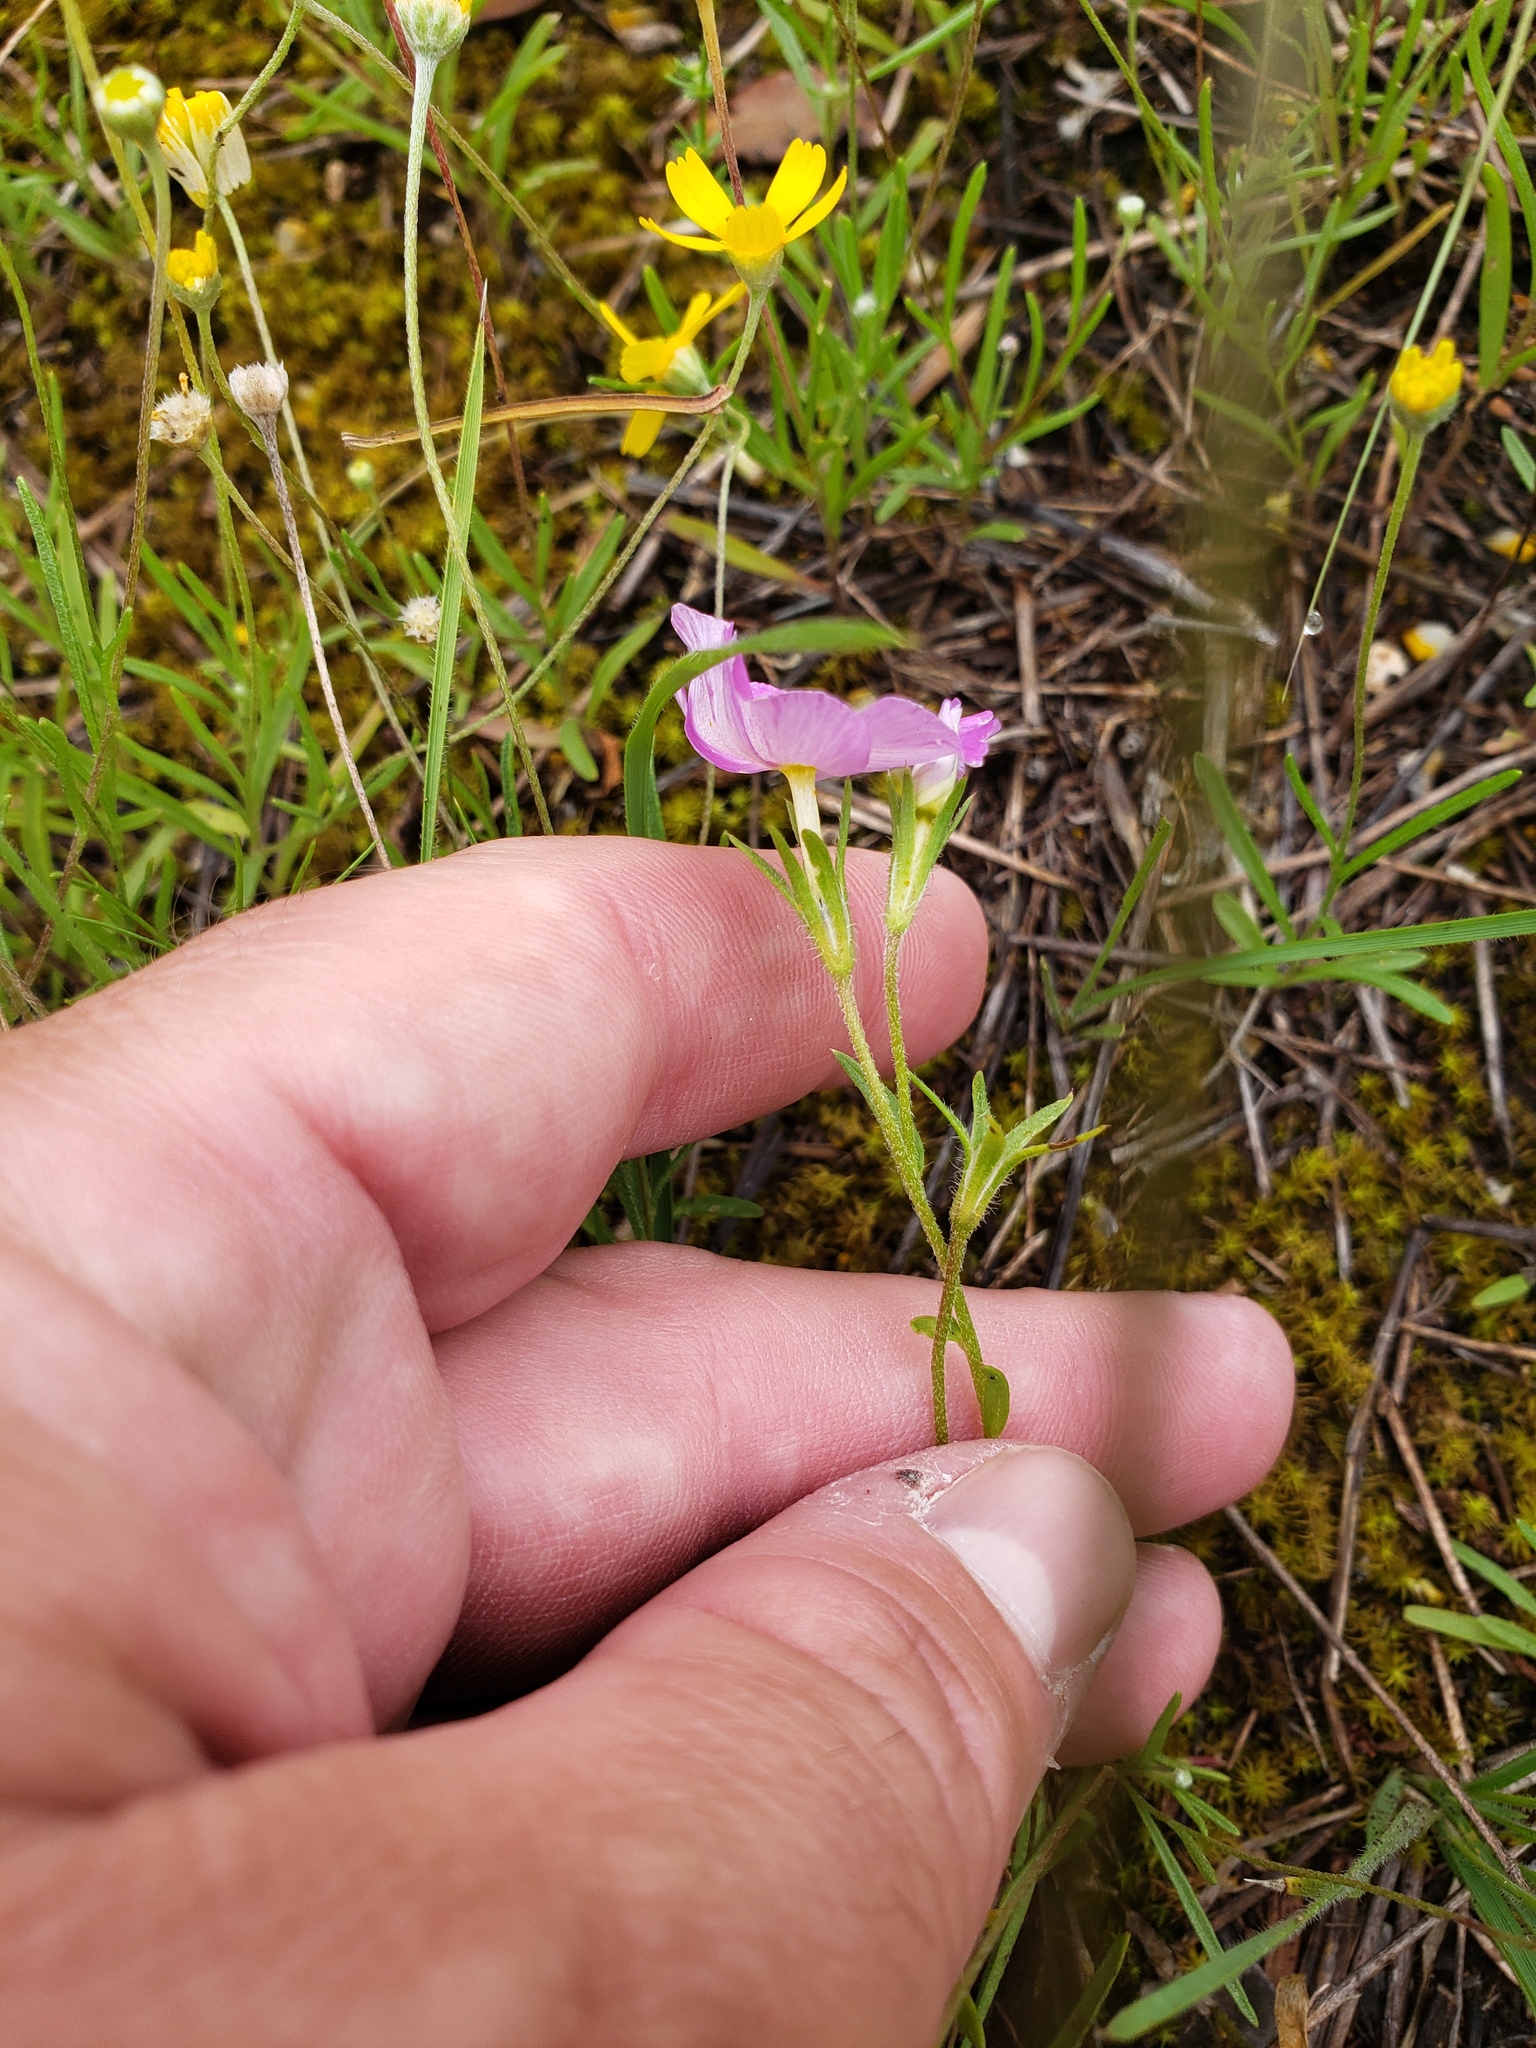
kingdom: Plantae
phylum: Tracheophyta
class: Magnoliopsida
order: Ericales
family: Polemoniaceae
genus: Phlox
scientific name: Phlox roemeriana
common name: Roemer's phlox
